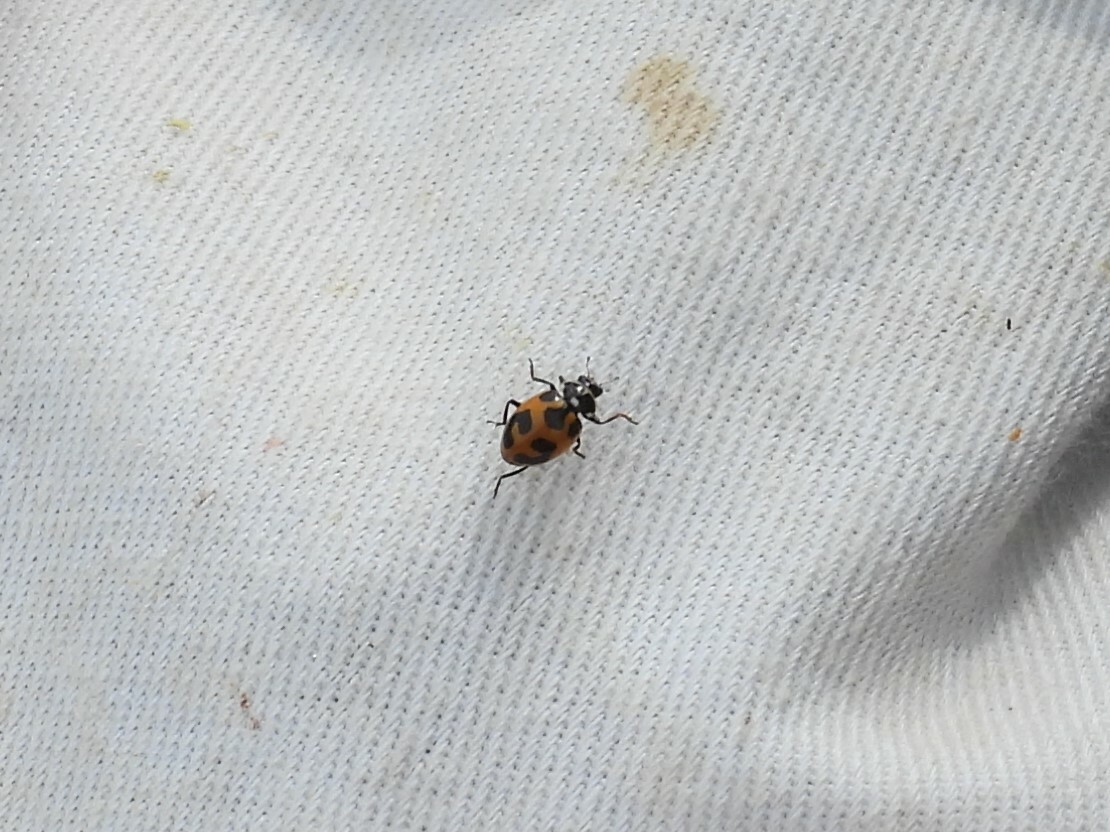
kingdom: Animalia
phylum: Arthropoda
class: Insecta
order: Coleoptera
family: Coccinellidae
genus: Hippodamia
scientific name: Hippodamia parenthesis
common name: Parenthesis lady beetle
